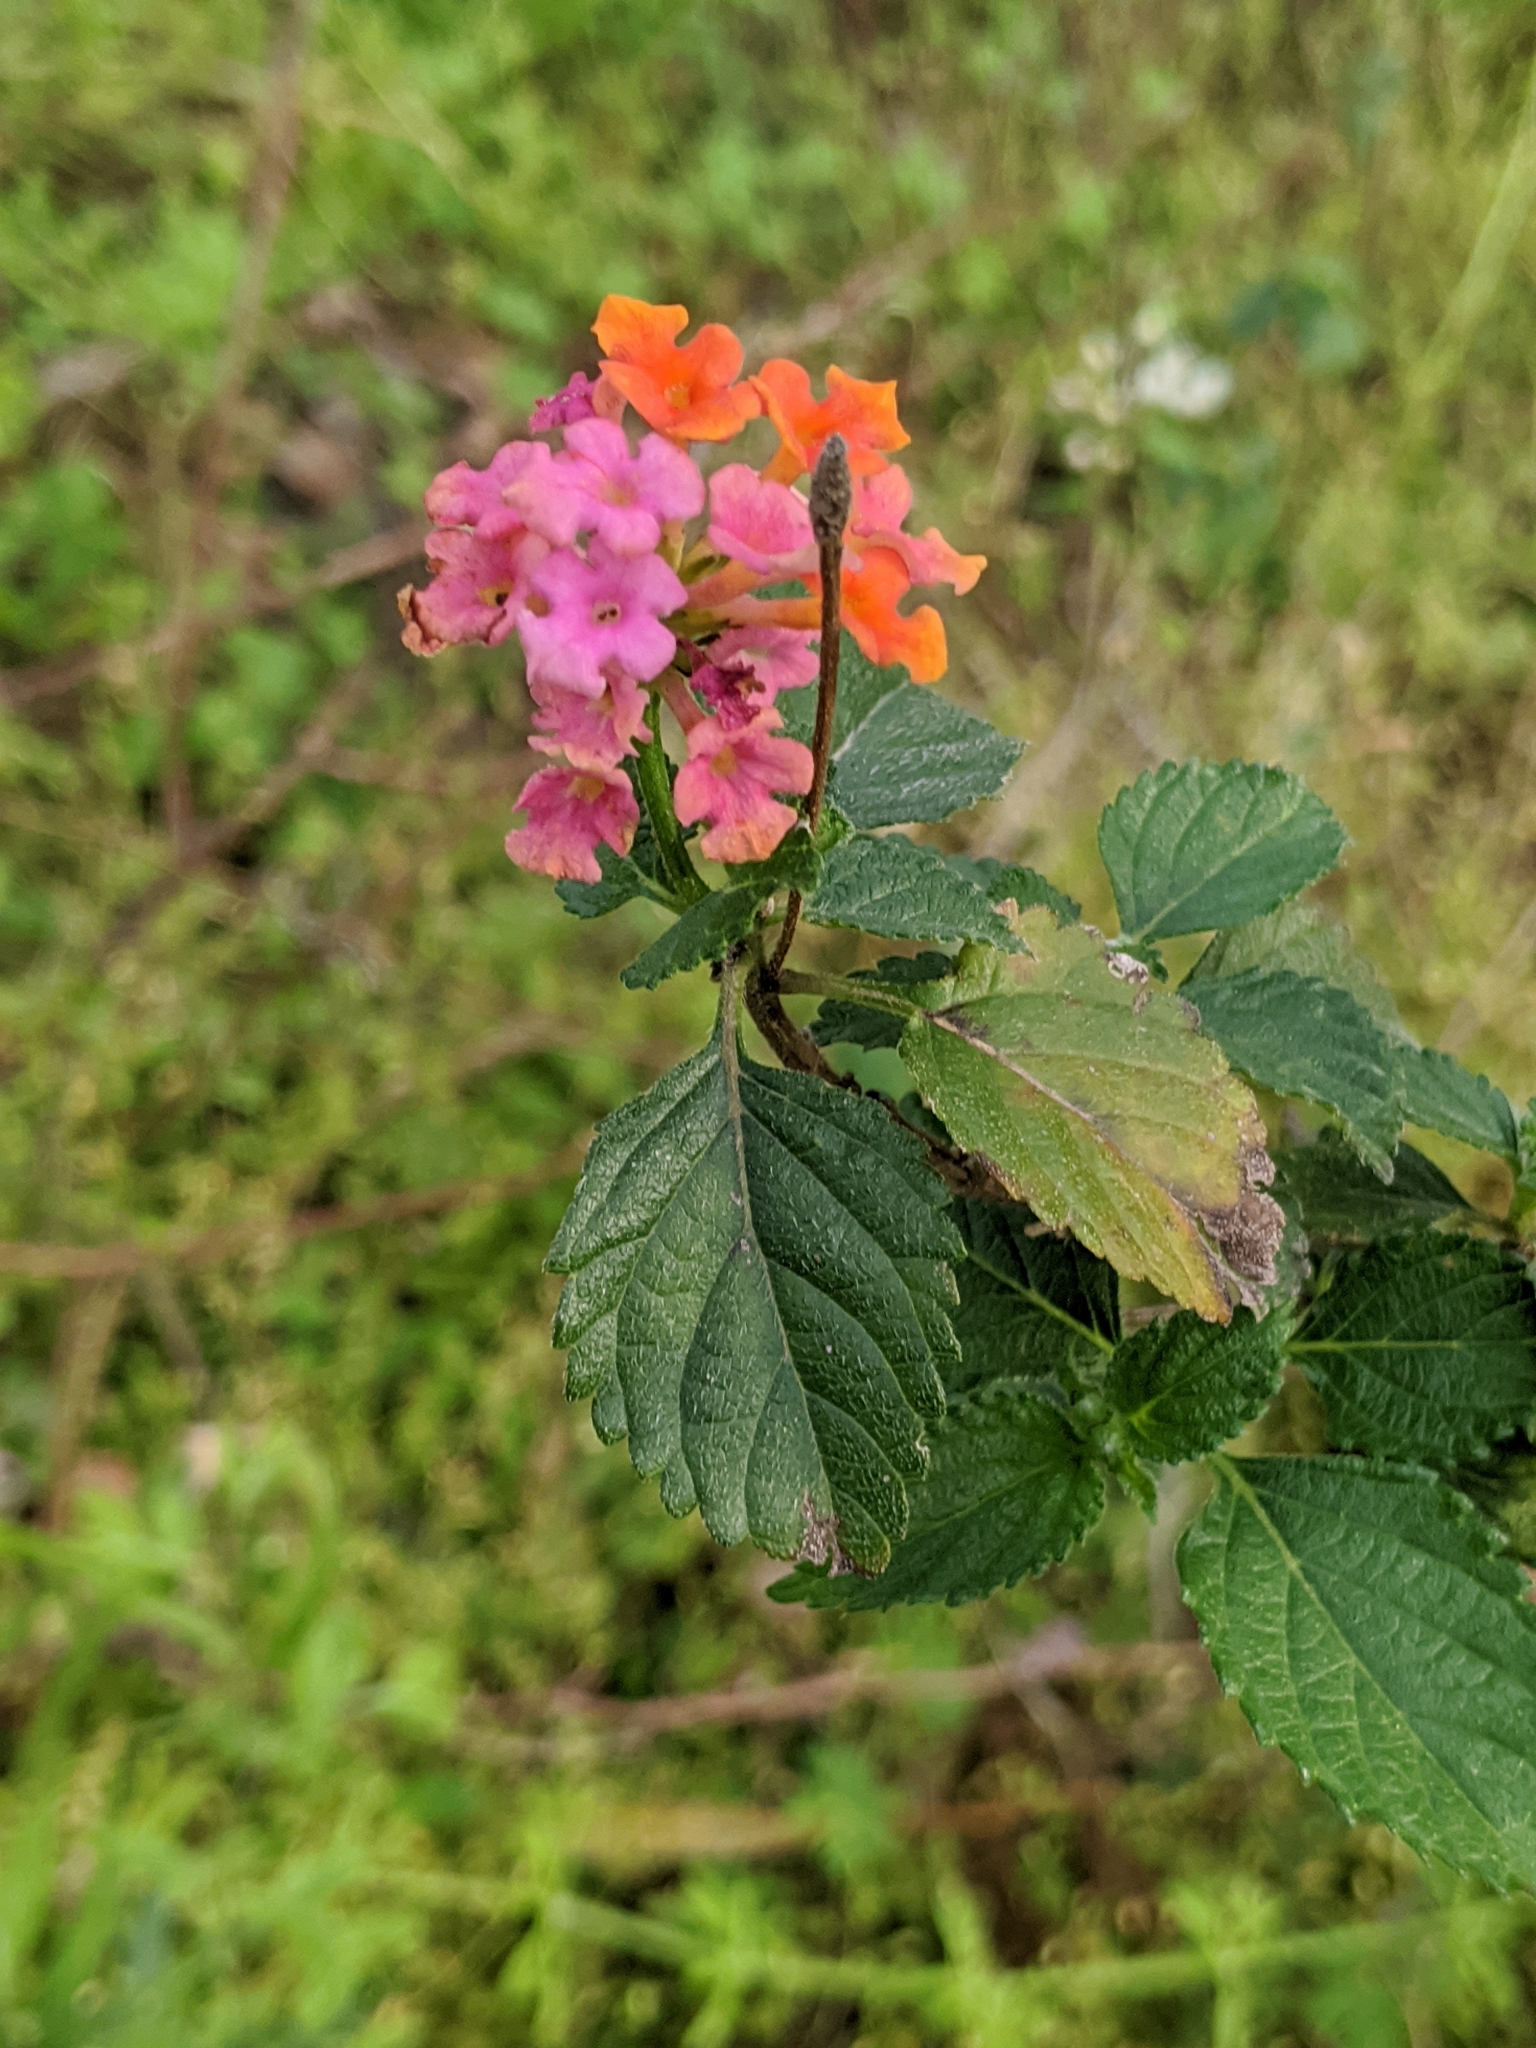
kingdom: Plantae
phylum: Tracheophyta
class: Magnoliopsida
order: Lamiales
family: Verbenaceae
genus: Lantana
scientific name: Lantana strigocamara
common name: Lantana
